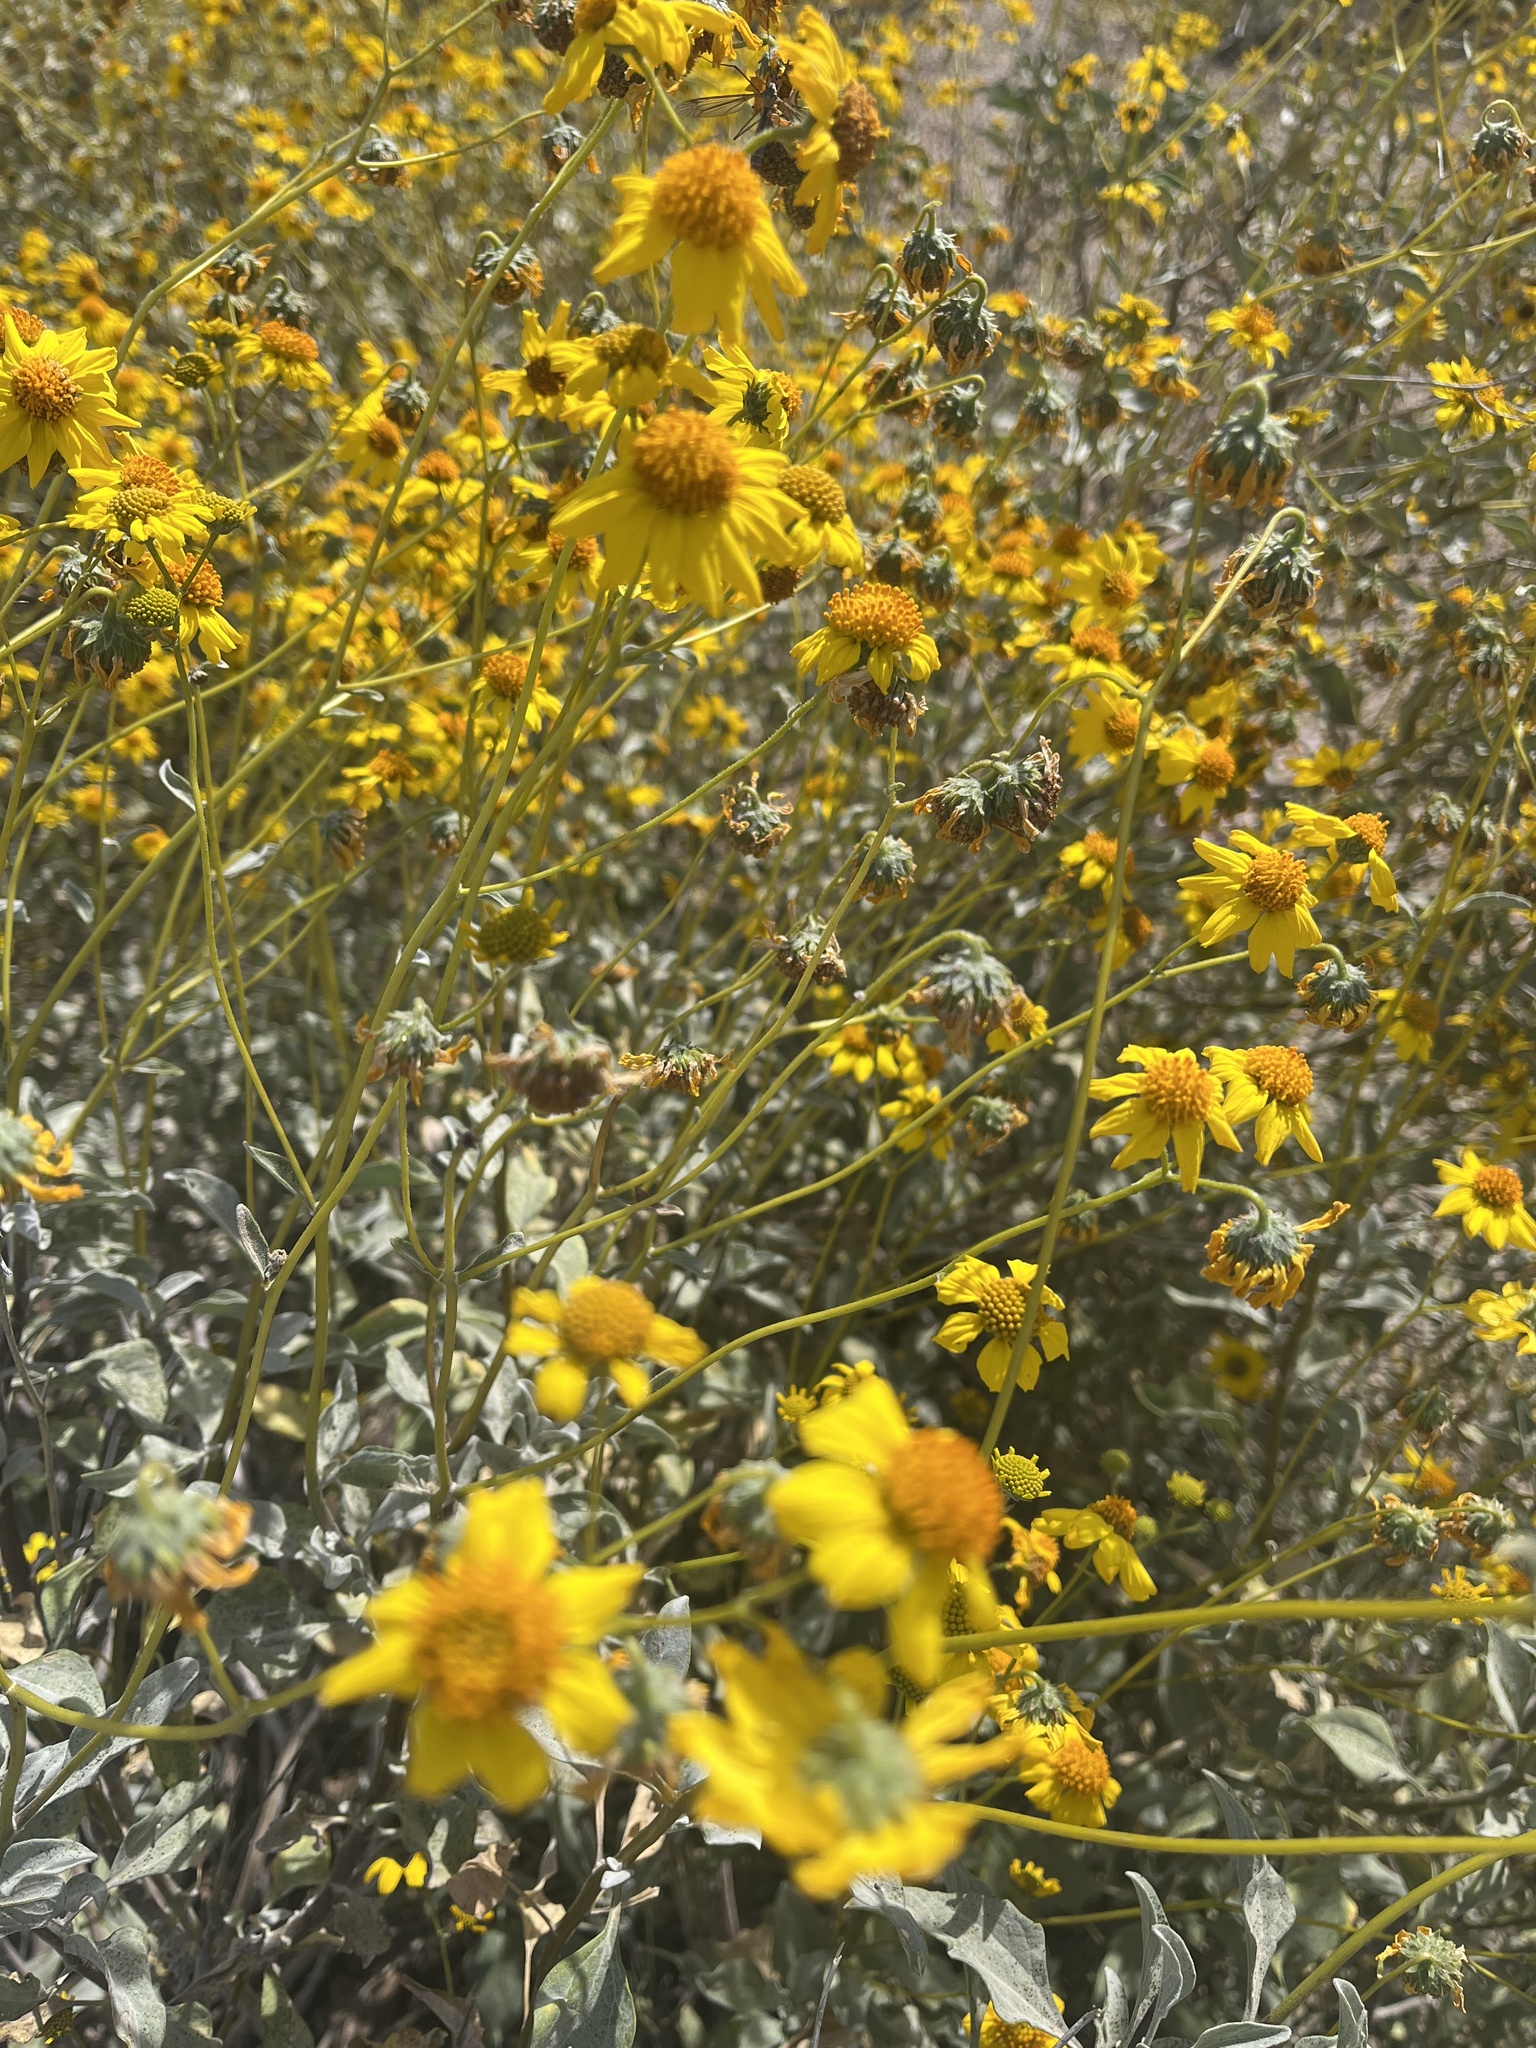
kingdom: Plantae
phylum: Tracheophyta
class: Magnoliopsida
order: Asterales
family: Asteraceae
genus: Encelia
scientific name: Encelia farinosa
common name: Brittlebush
